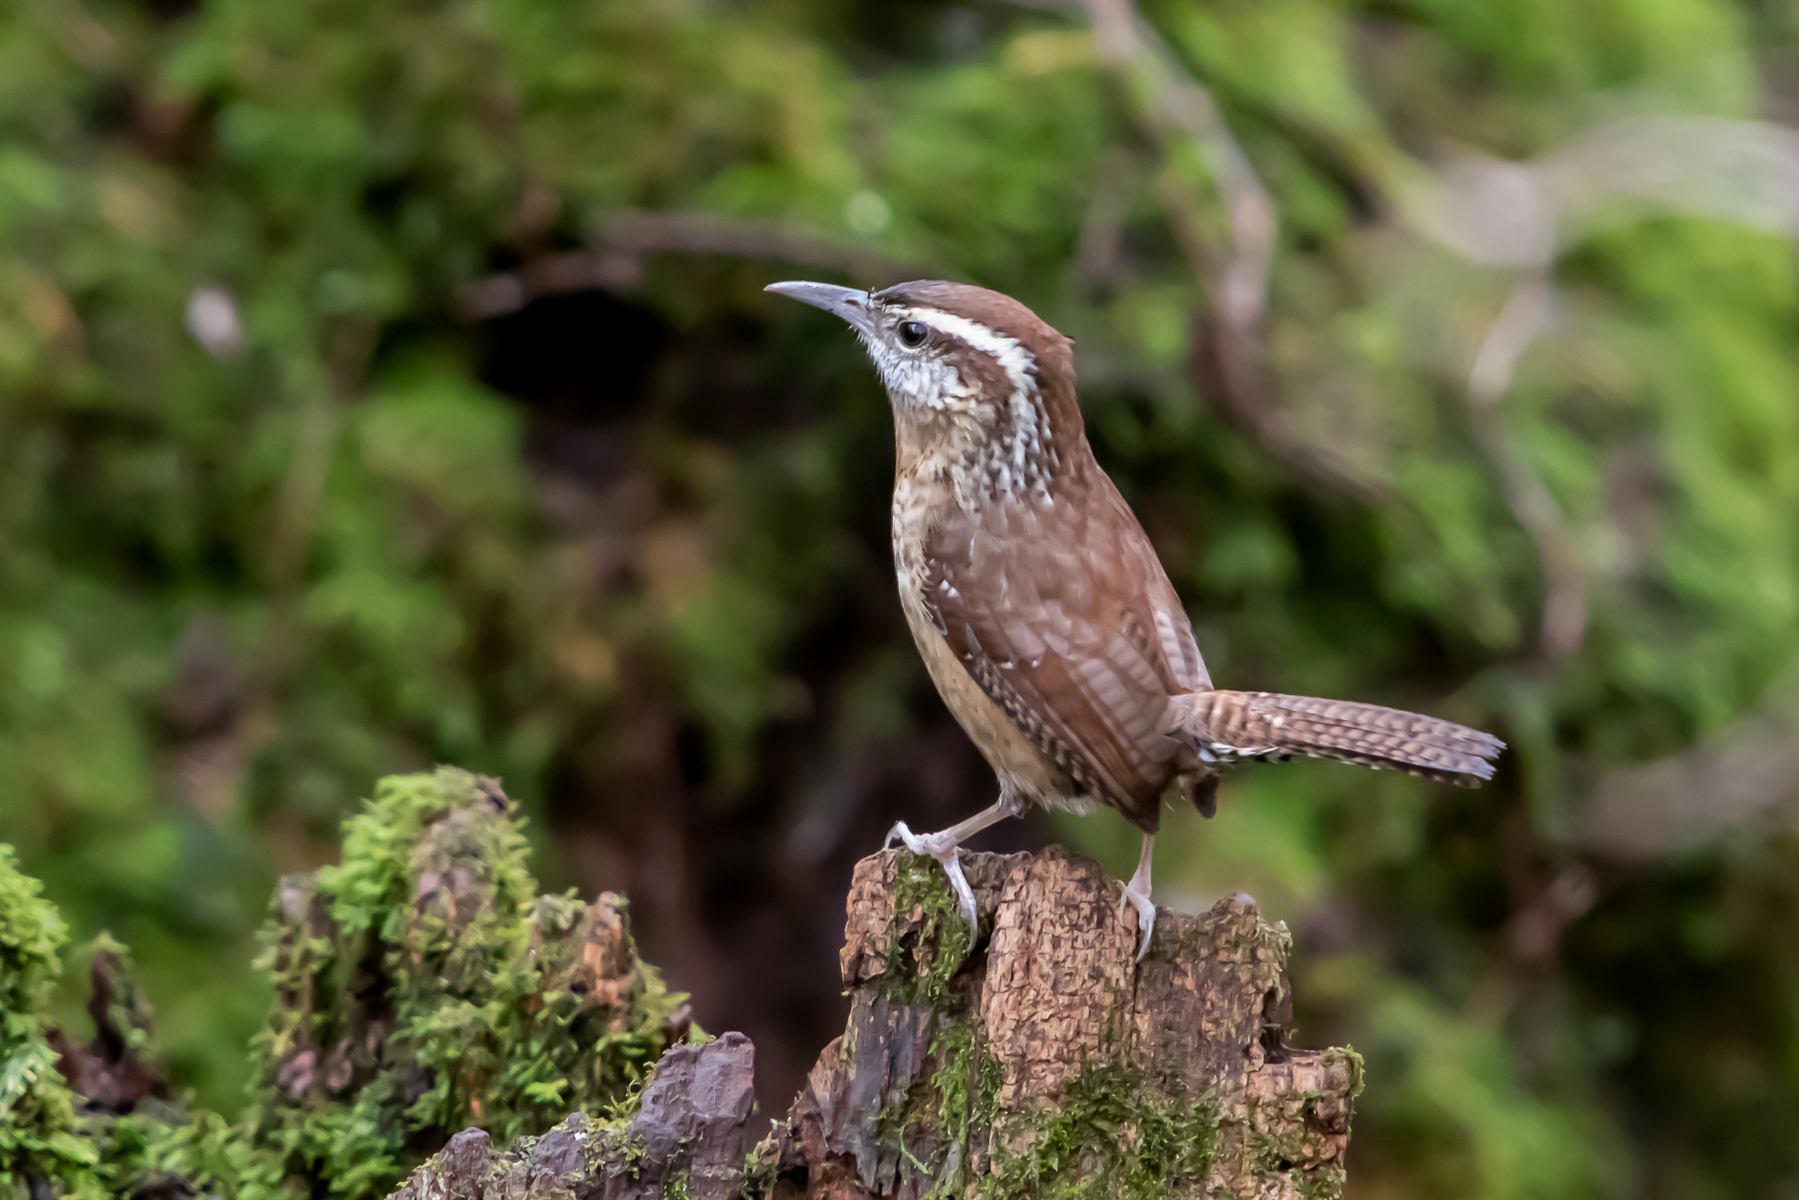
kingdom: Animalia
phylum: Chordata
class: Aves
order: Passeriformes
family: Troglodytidae
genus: Thryothorus
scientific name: Thryothorus ludovicianus
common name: Carolina wren
